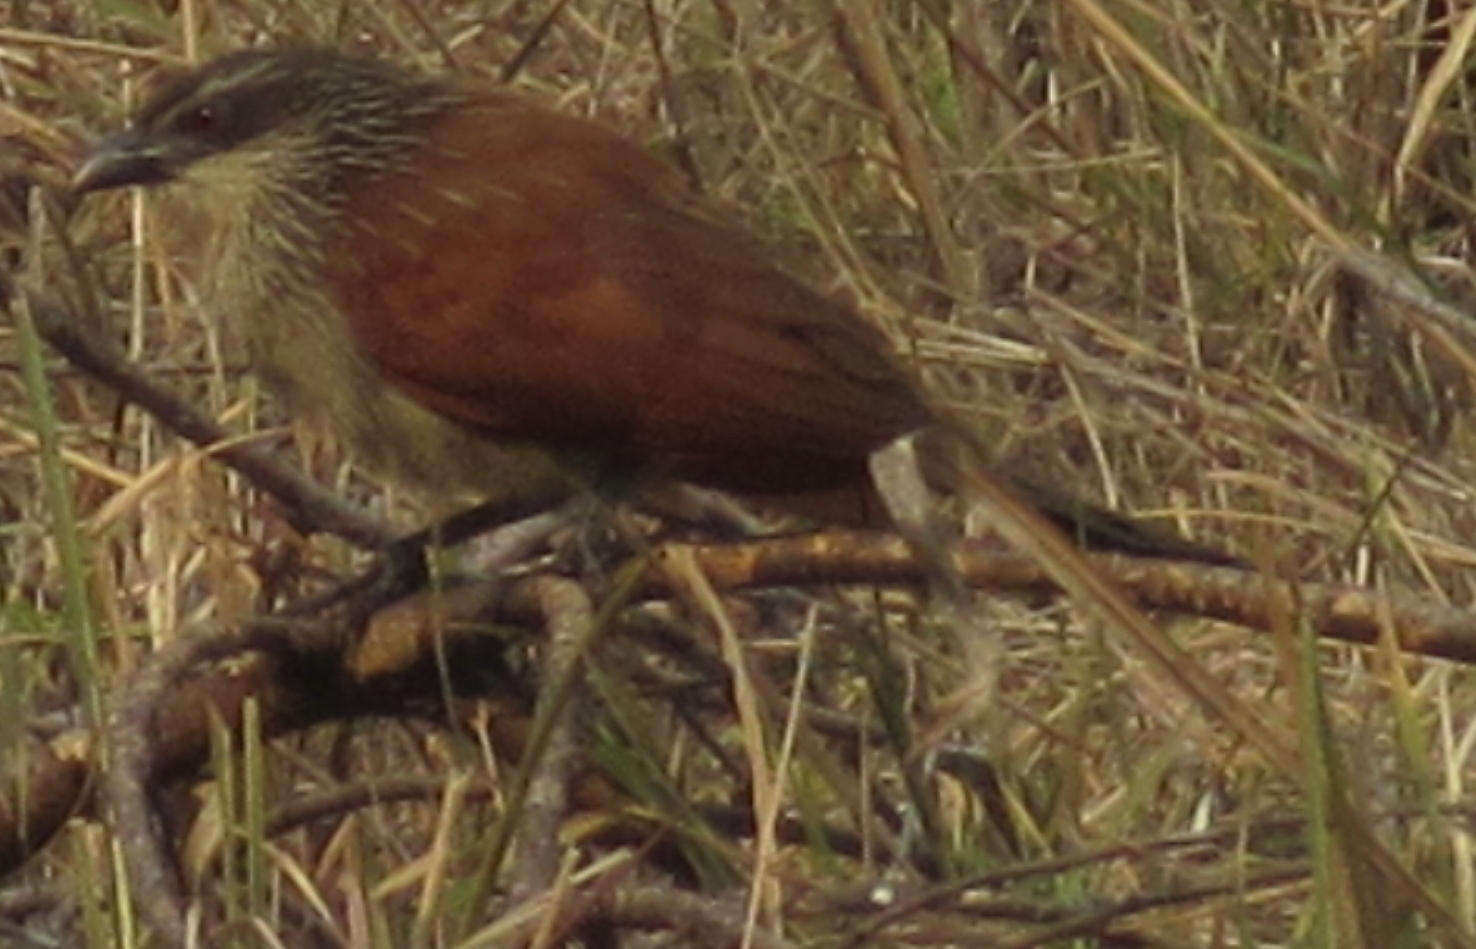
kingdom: Animalia
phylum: Chordata
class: Aves
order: Cuculiformes
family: Cuculidae
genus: Centropus
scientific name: Centropus superciliosus
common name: White-browed coucal
